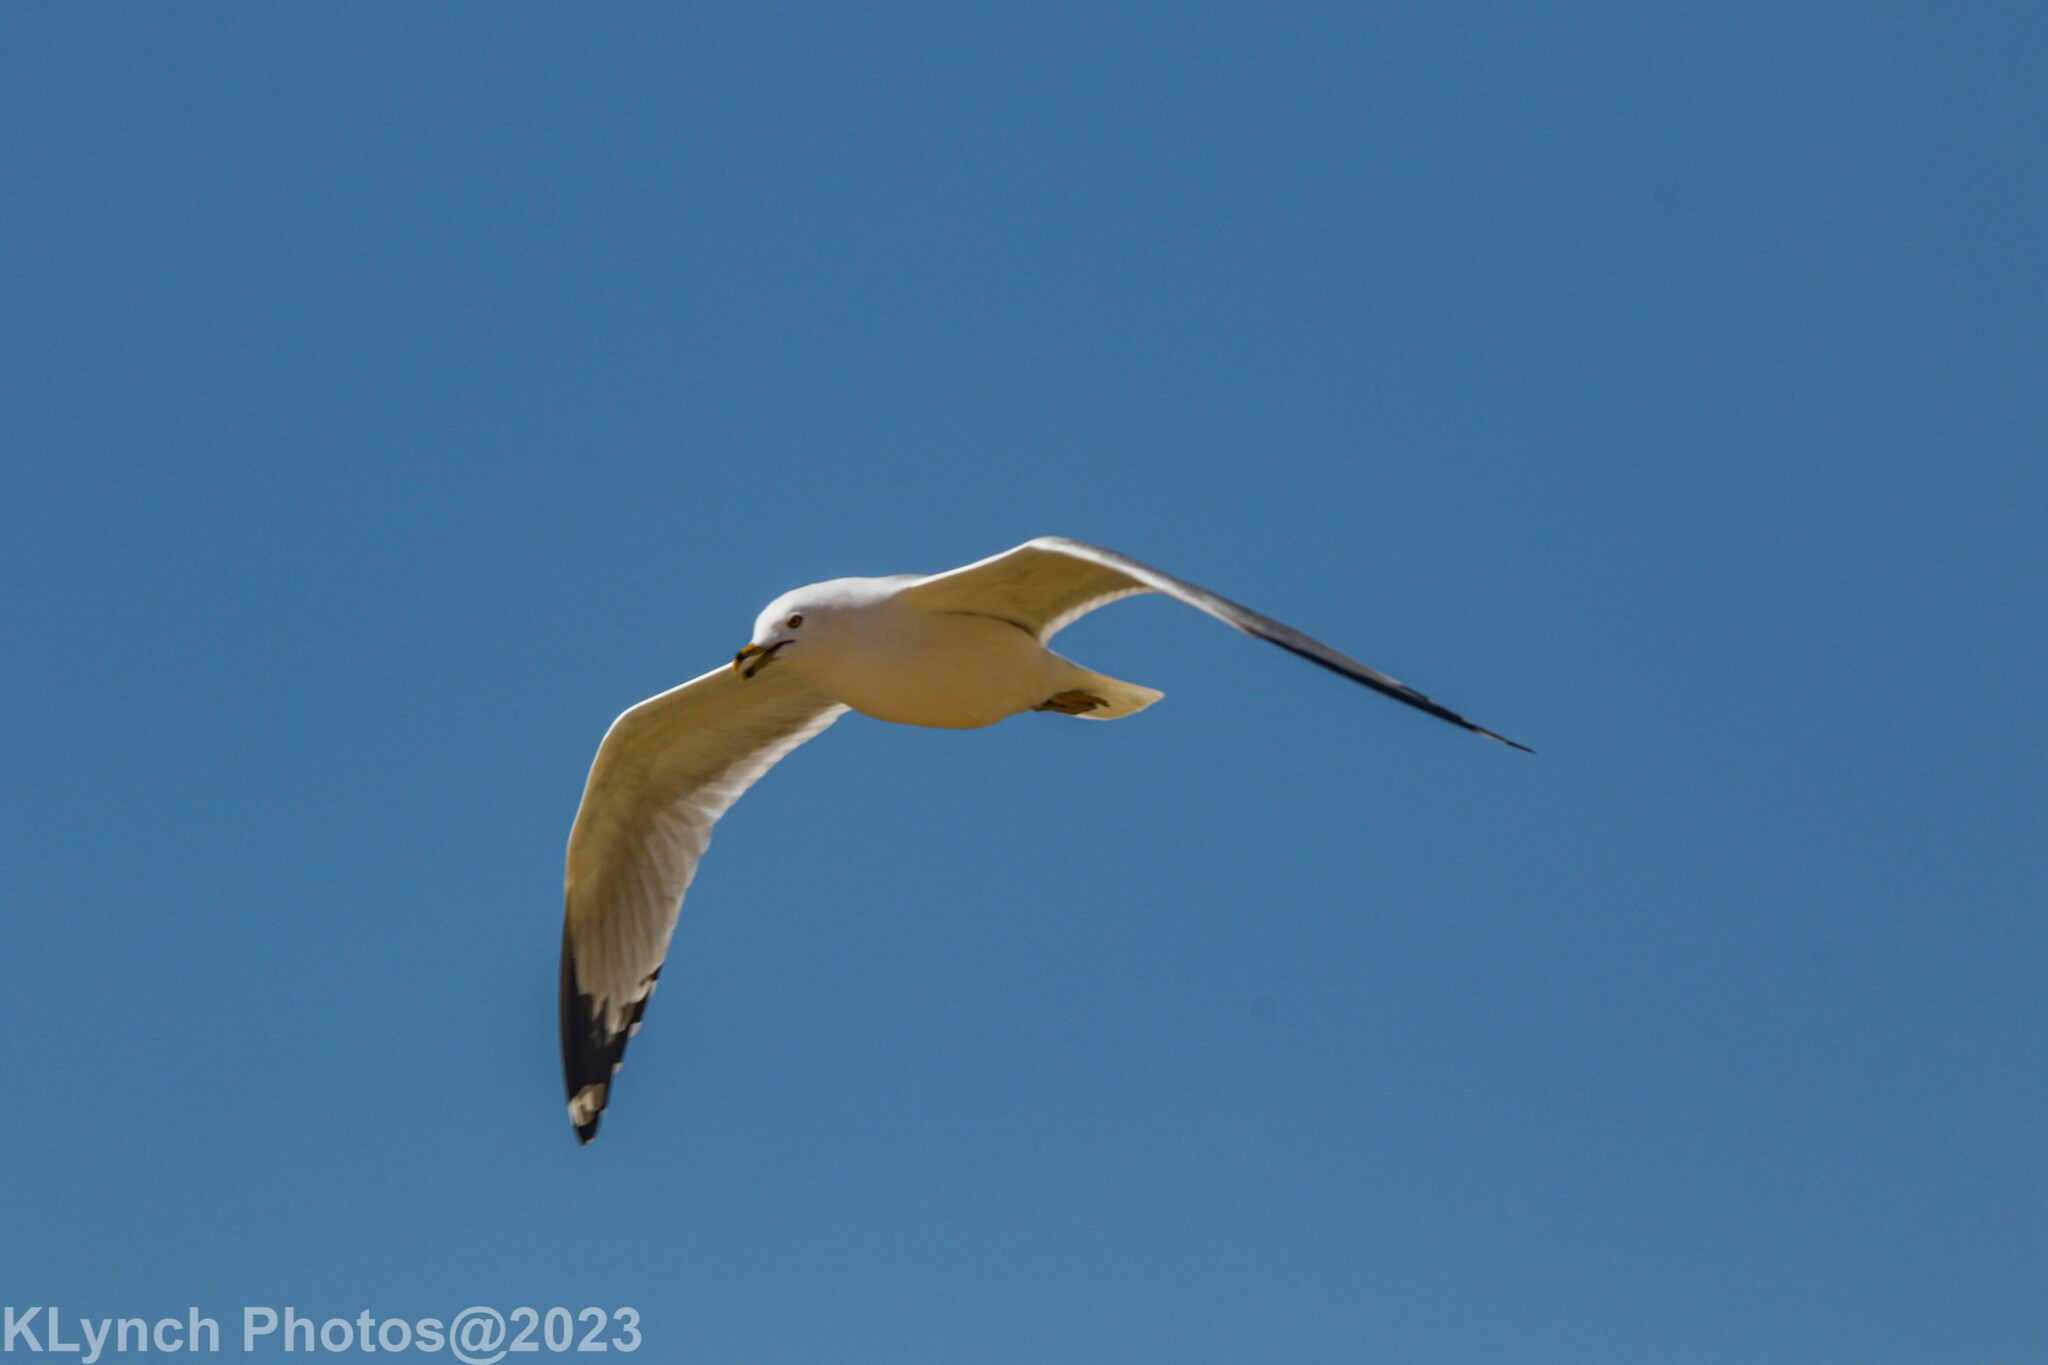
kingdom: Animalia
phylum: Chordata
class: Aves
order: Charadriiformes
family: Laridae
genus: Larus
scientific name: Larus delawarensis
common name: Ring-billed gull
